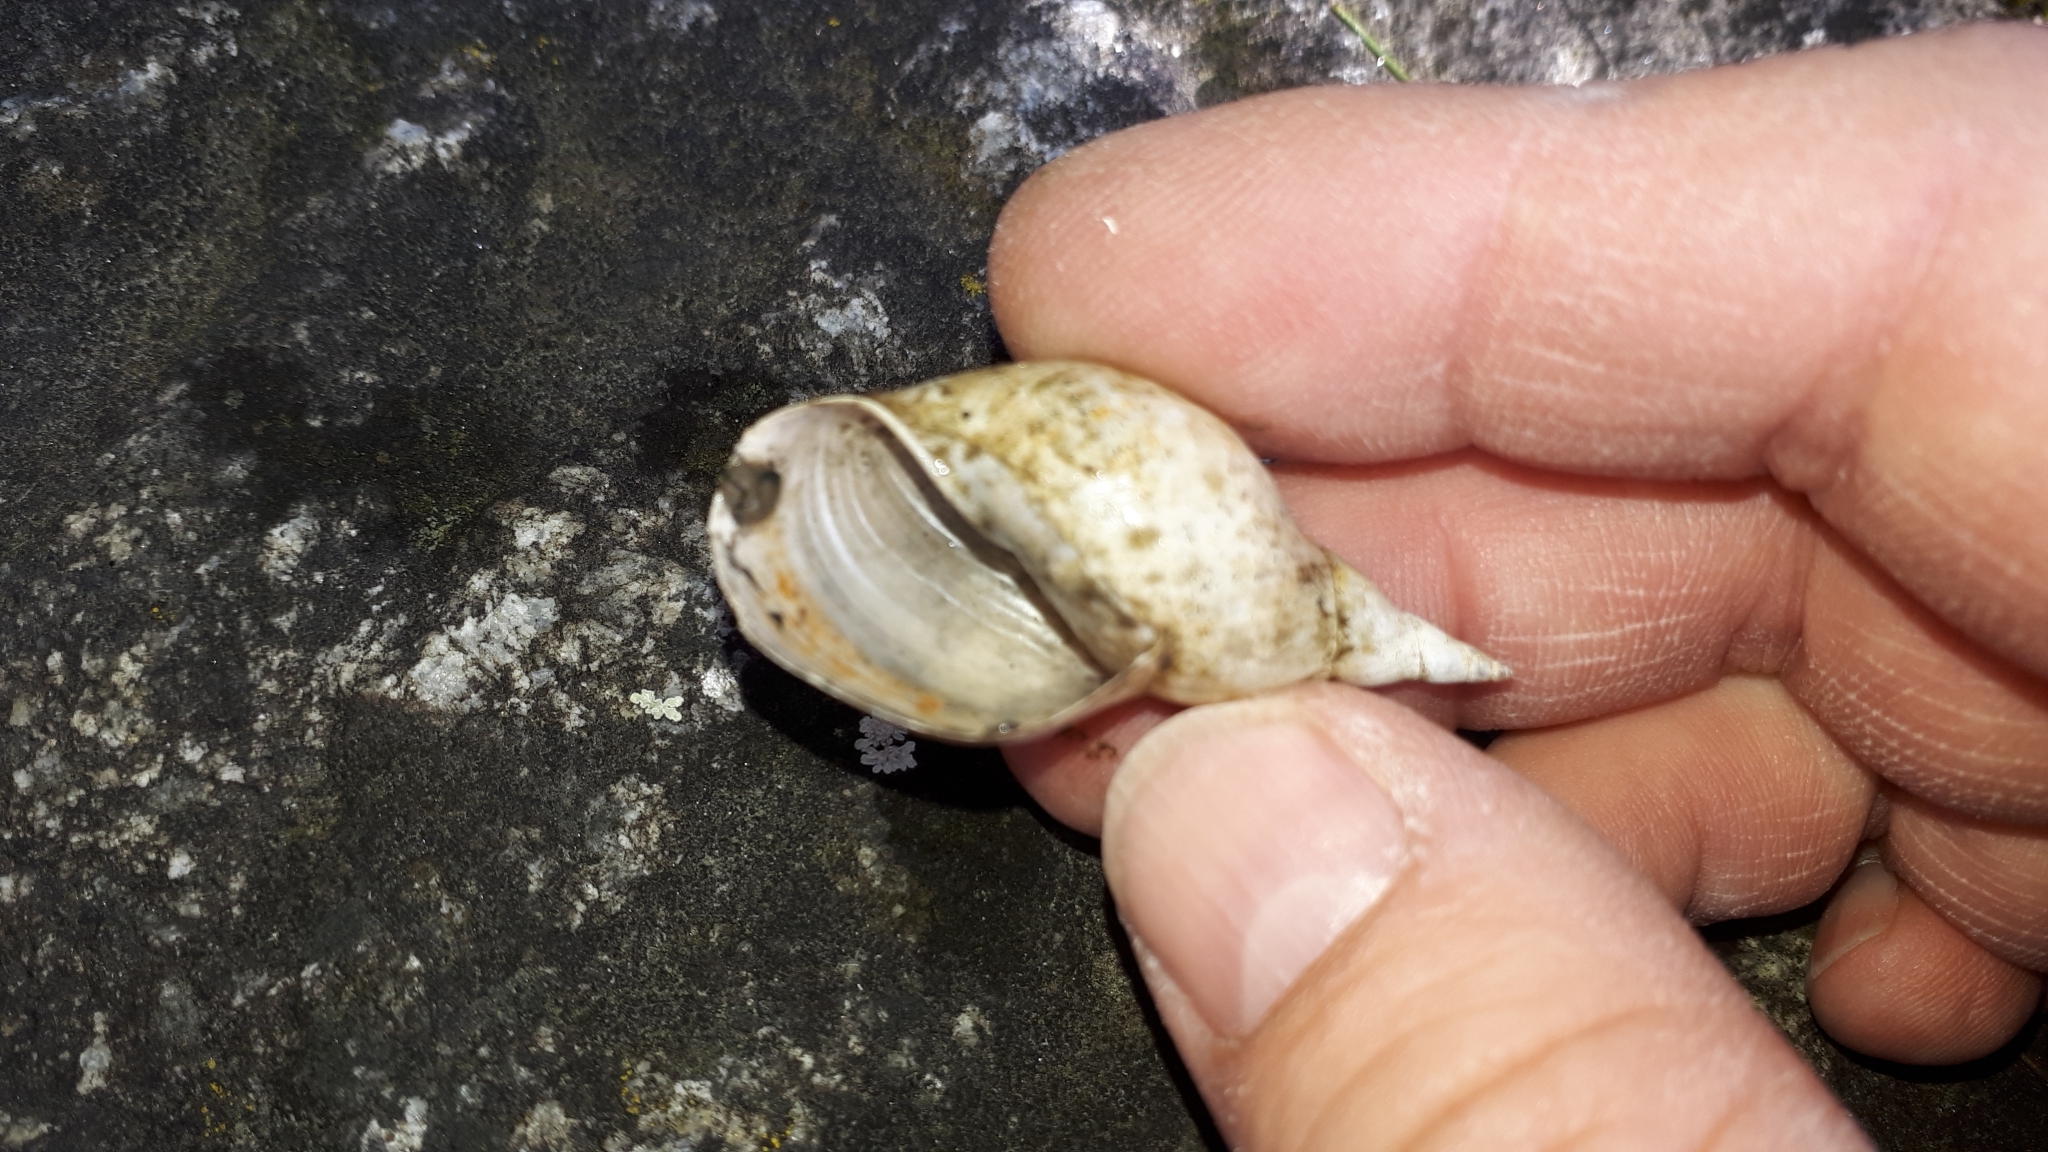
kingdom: Animalia
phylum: Mollusca
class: Gastropoda
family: Lymnaeidae
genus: Lymnaea
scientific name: Lymnaea stagnalis
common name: Great pond snail
